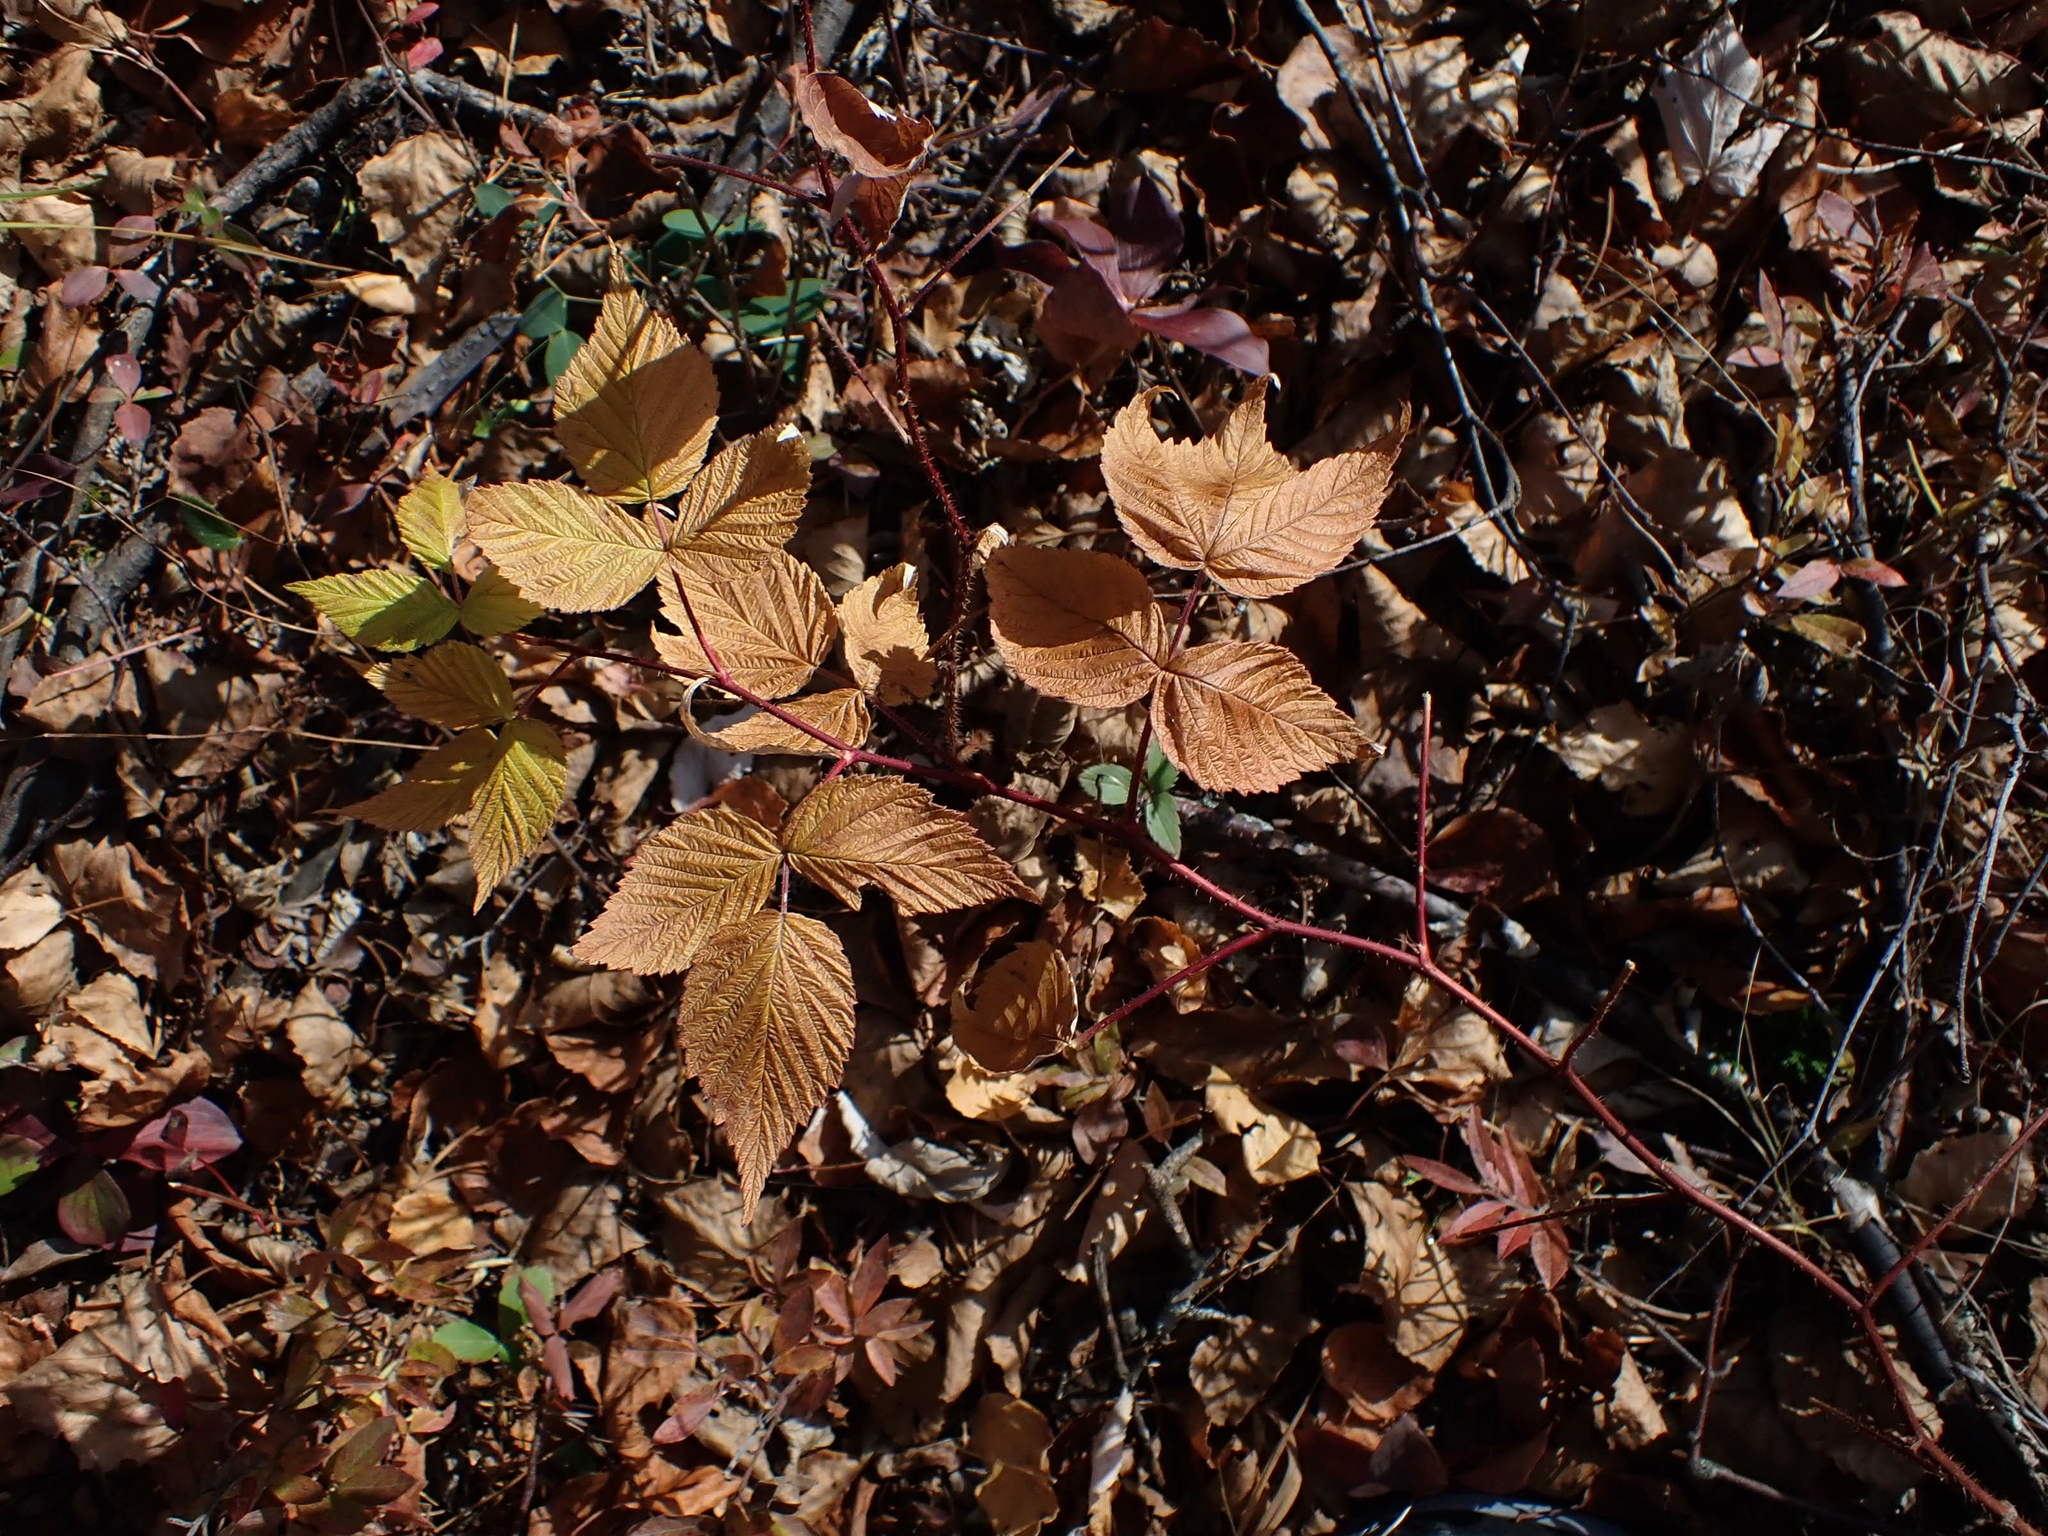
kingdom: Plantae
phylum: Tracheophyta
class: Magnoliopsida
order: Rosales
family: Rosaceae
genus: Rubus
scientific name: Rubus idaeus
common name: Raspberry
